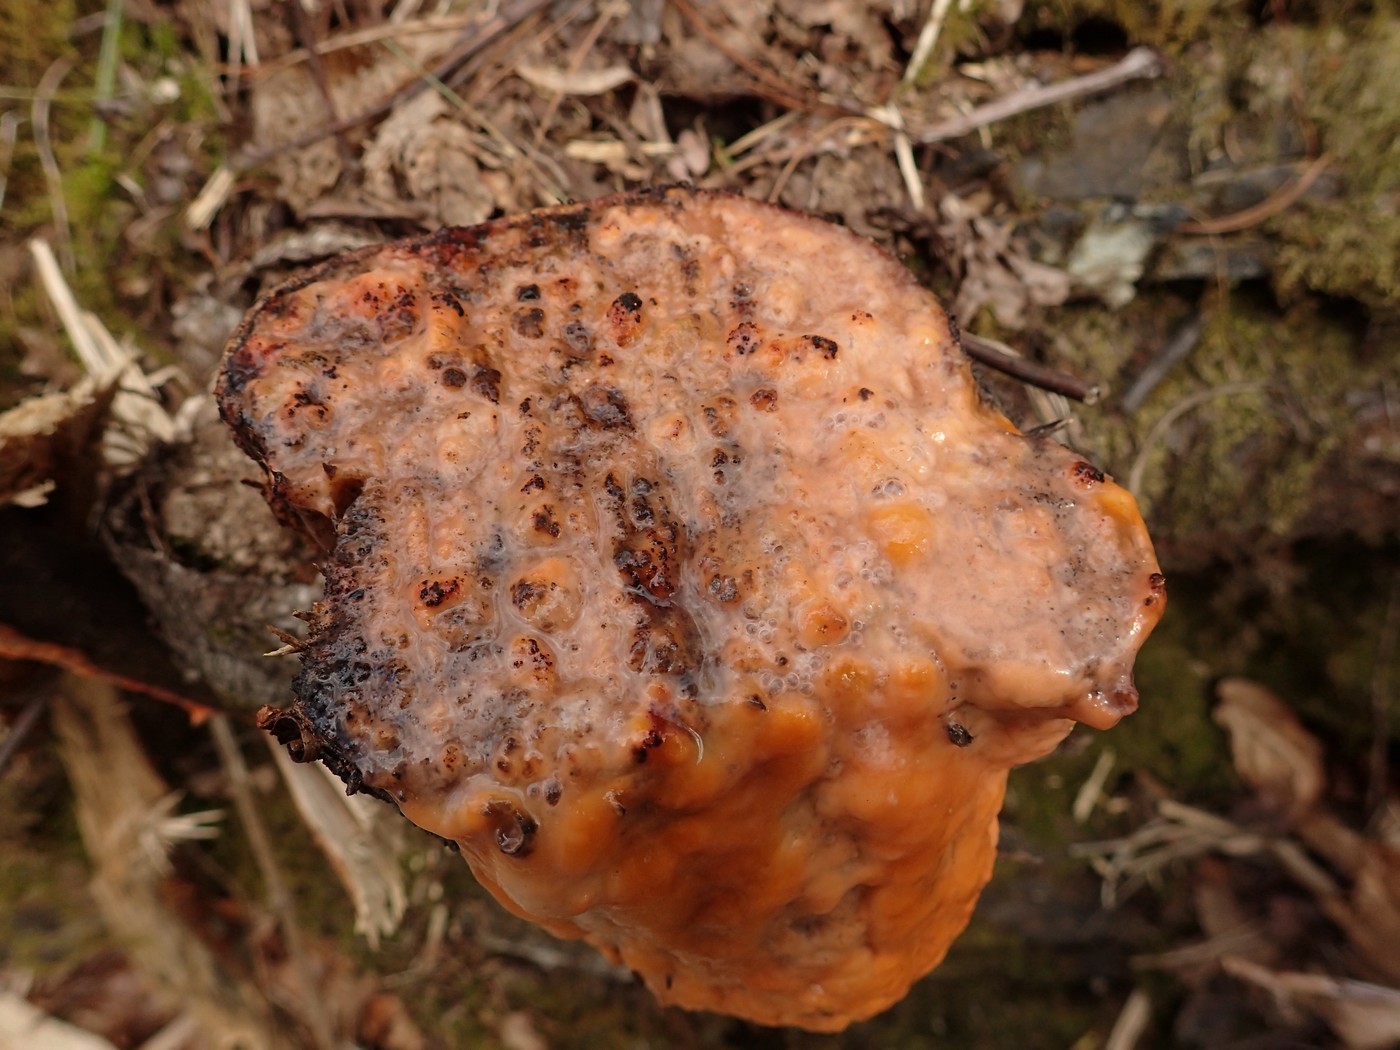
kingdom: Fungi
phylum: Ascomycota
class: Sordariomycetes
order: Hypocreales
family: Nectriaceae
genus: Fusicolla
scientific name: Fusicolla merismoides
